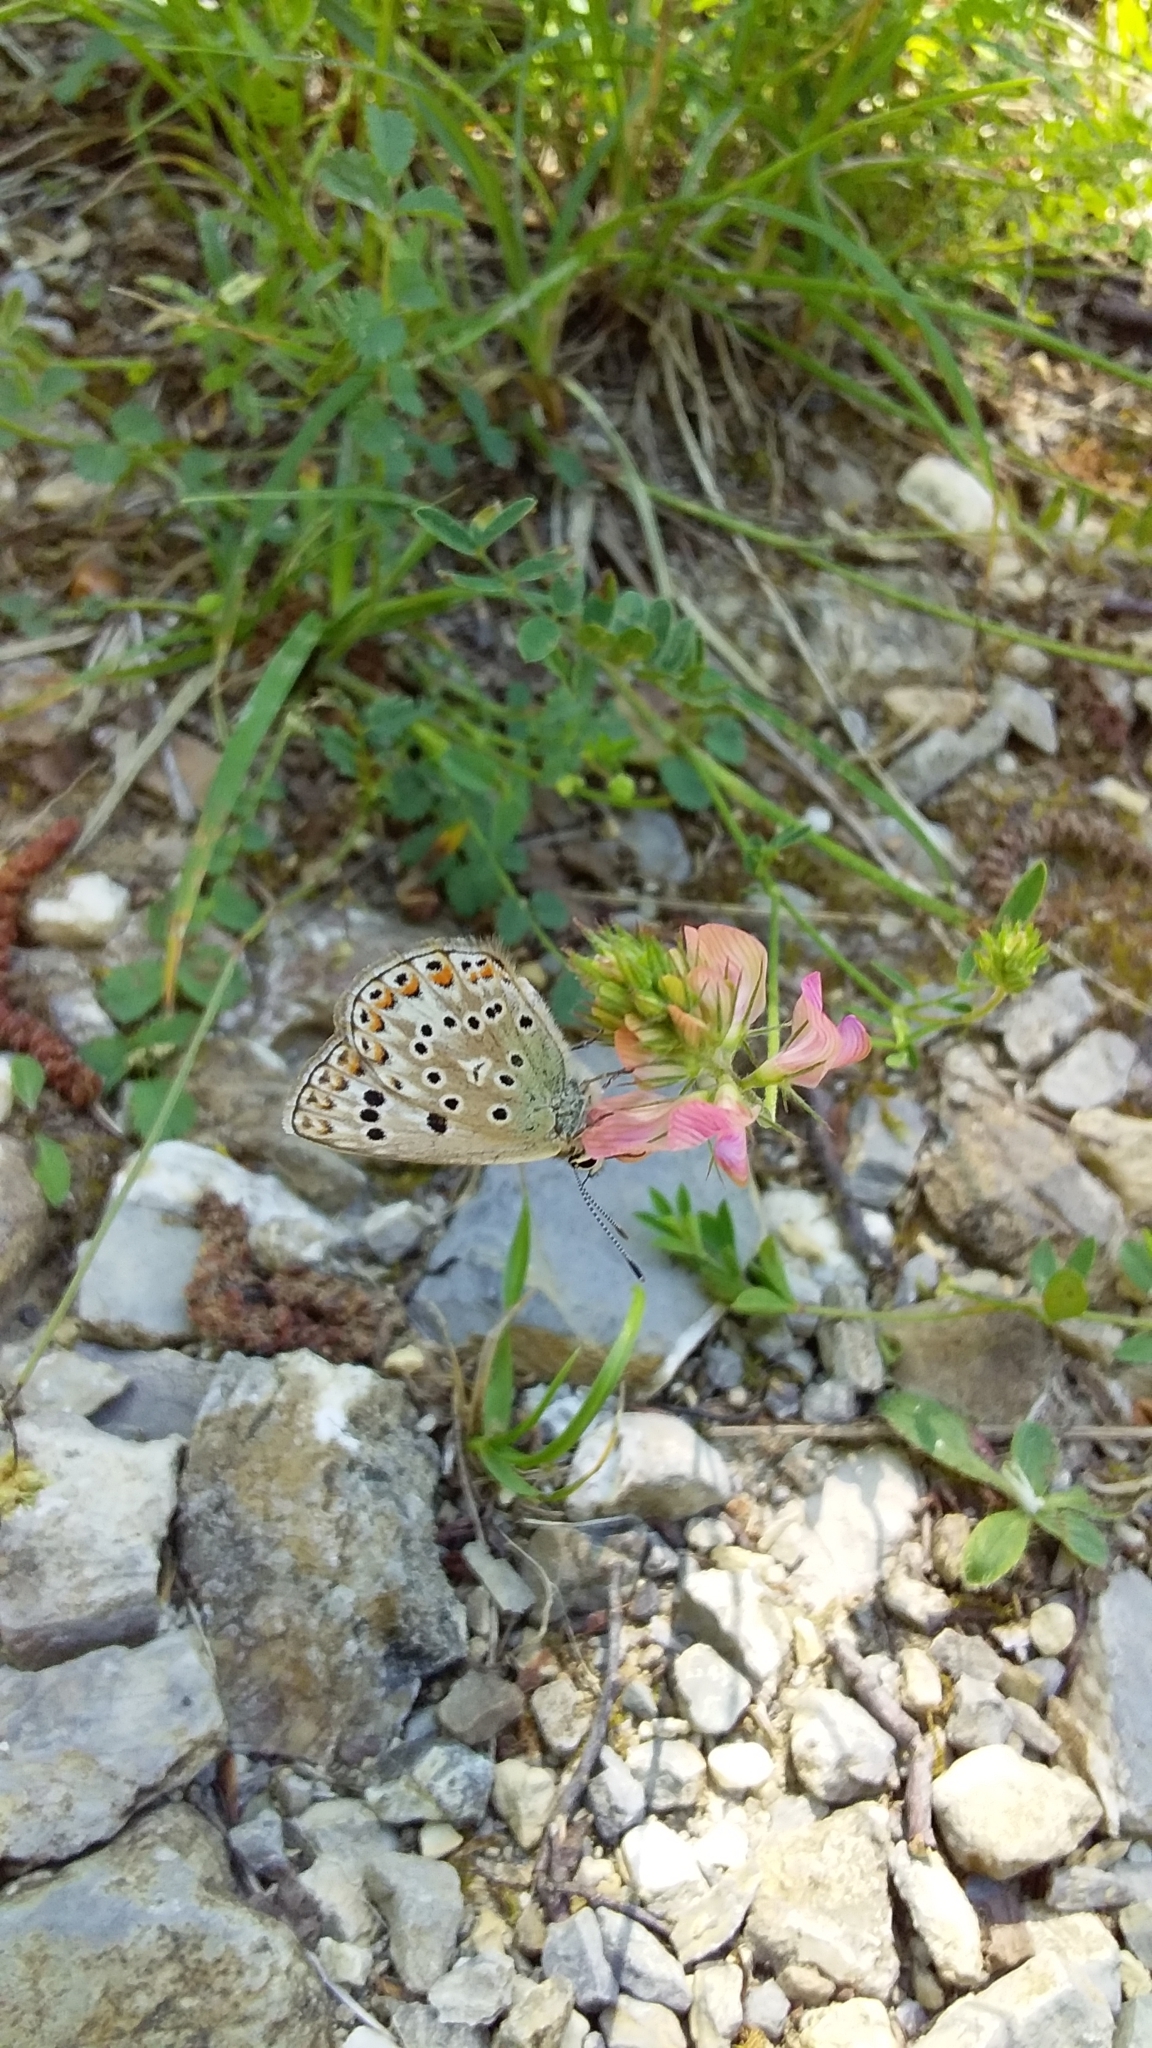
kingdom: Animalia
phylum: Arthropoda
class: Insecta
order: Lepidoptera
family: Lycaenidae
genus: Plebicula
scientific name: Plebicula escheri
